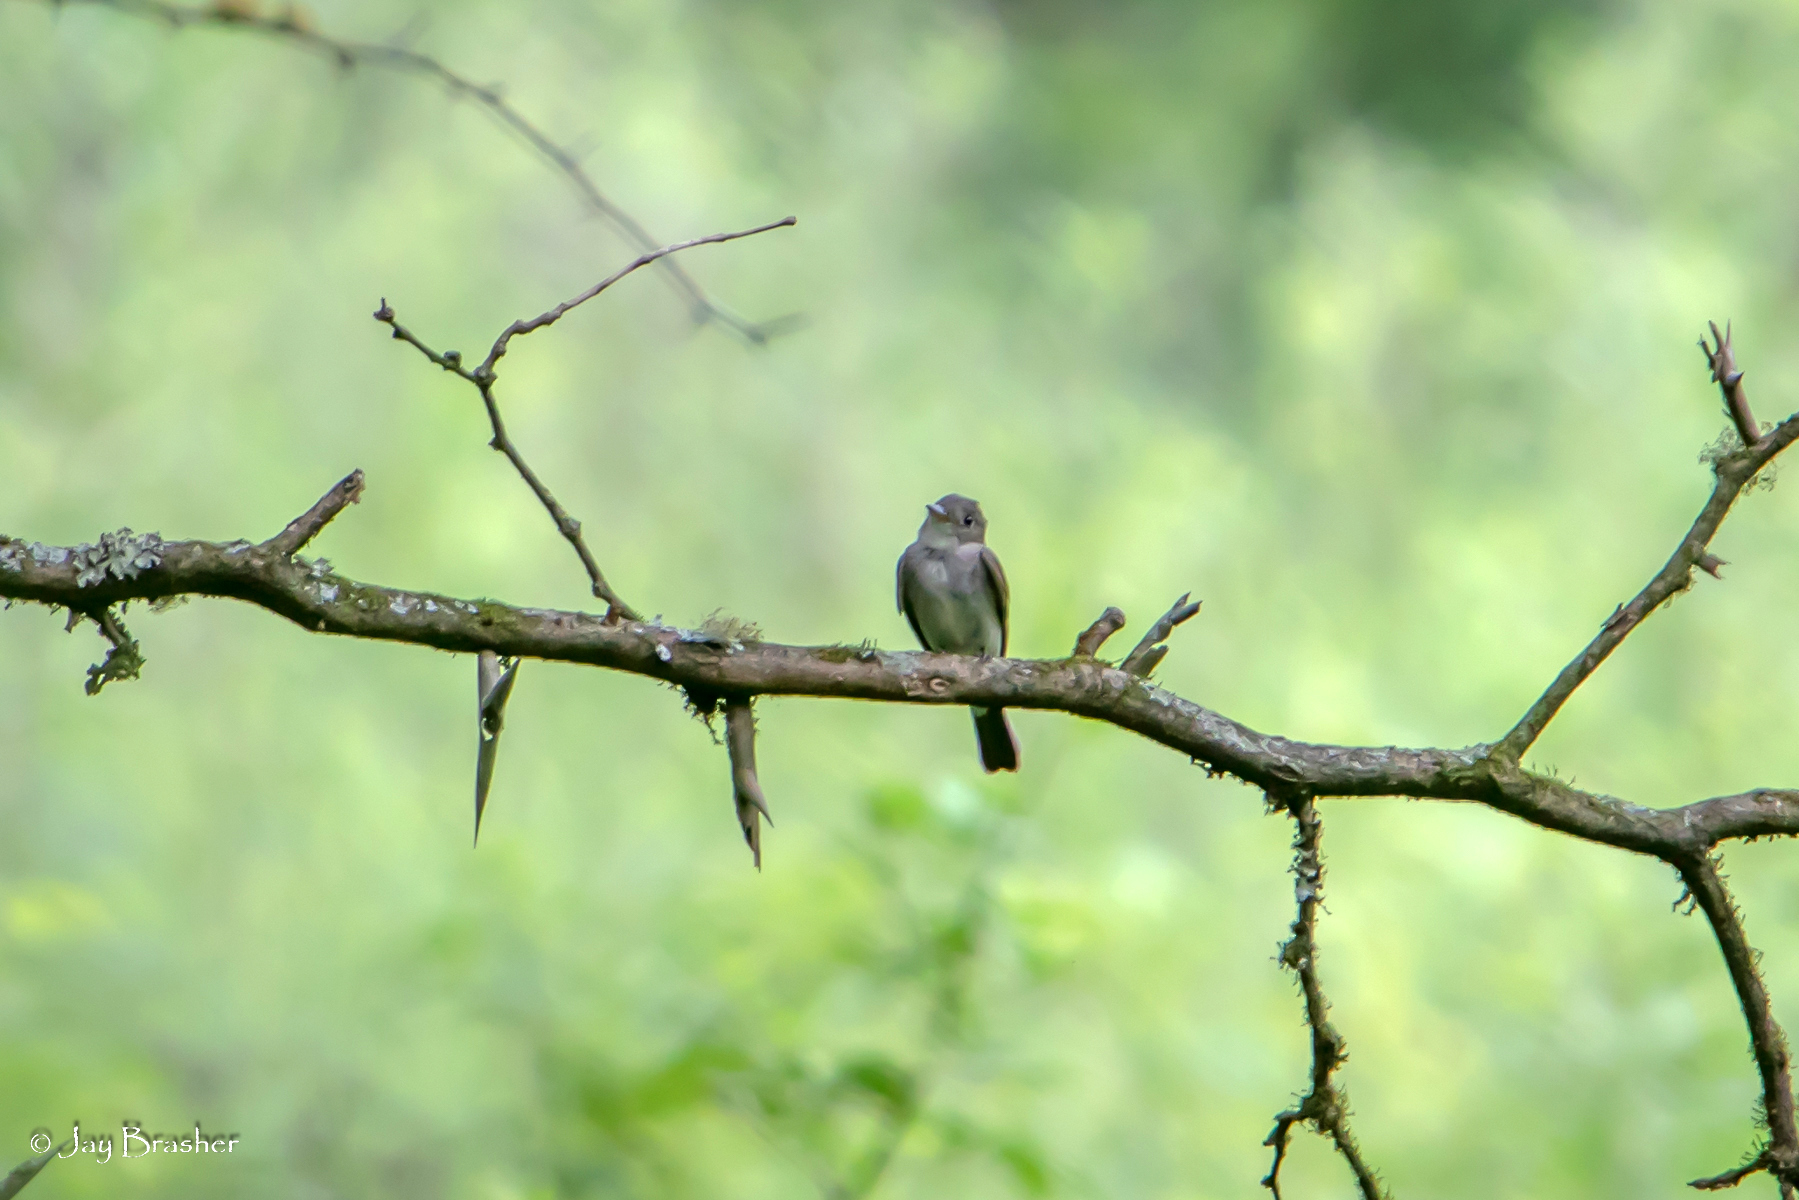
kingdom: Animalia
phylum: Chordata
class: Aves
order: Passeriformes
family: Tyrannidae
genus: Contopus
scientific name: Contopus virens
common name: Eastern wood-pewee
